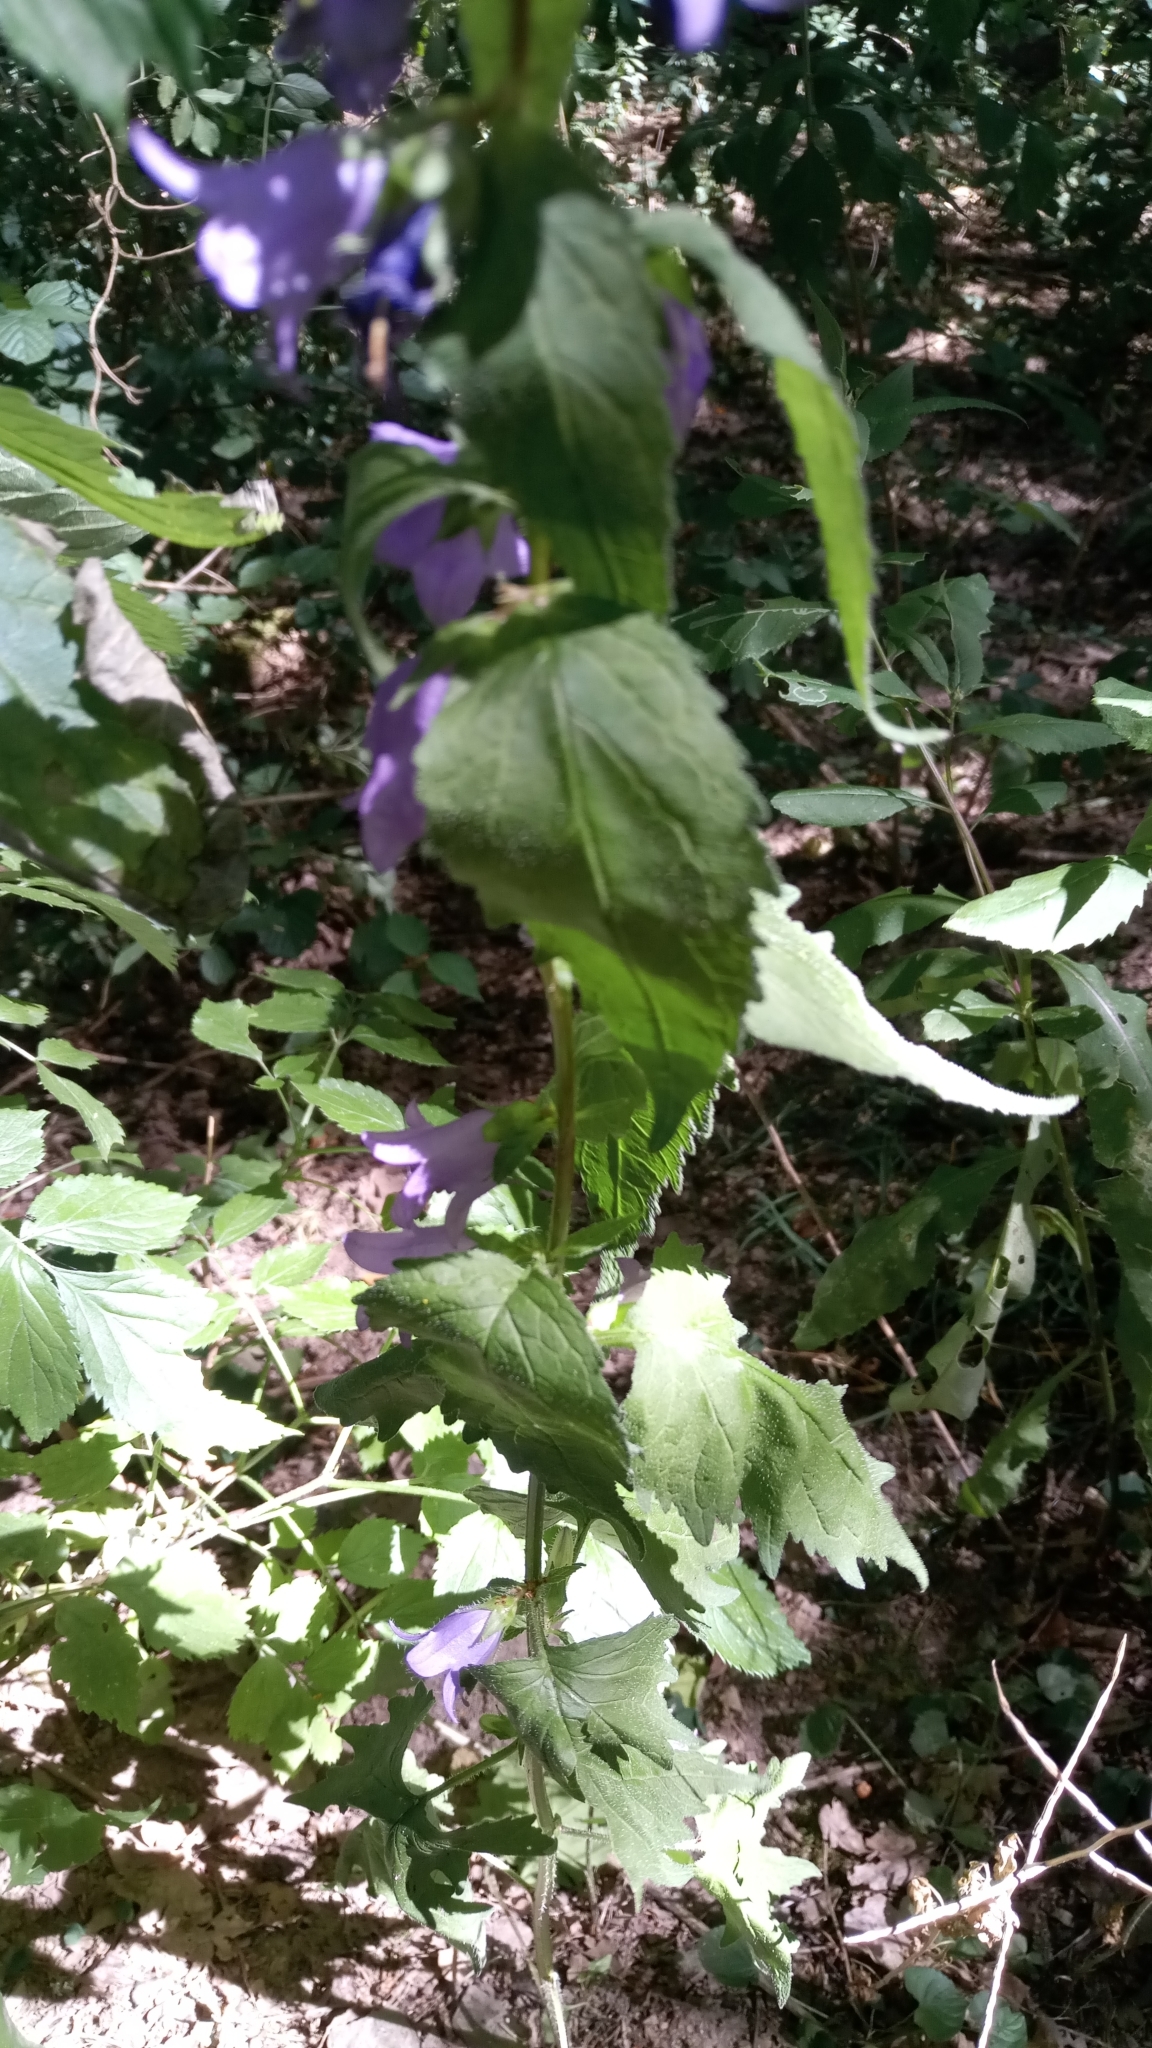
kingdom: Plantae
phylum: Tracheophyta
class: Magnoliopsida
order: Asterales
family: Campanulaceae
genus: Campanula
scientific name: Campanula trachelium
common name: Nettle-leaved bellflower
